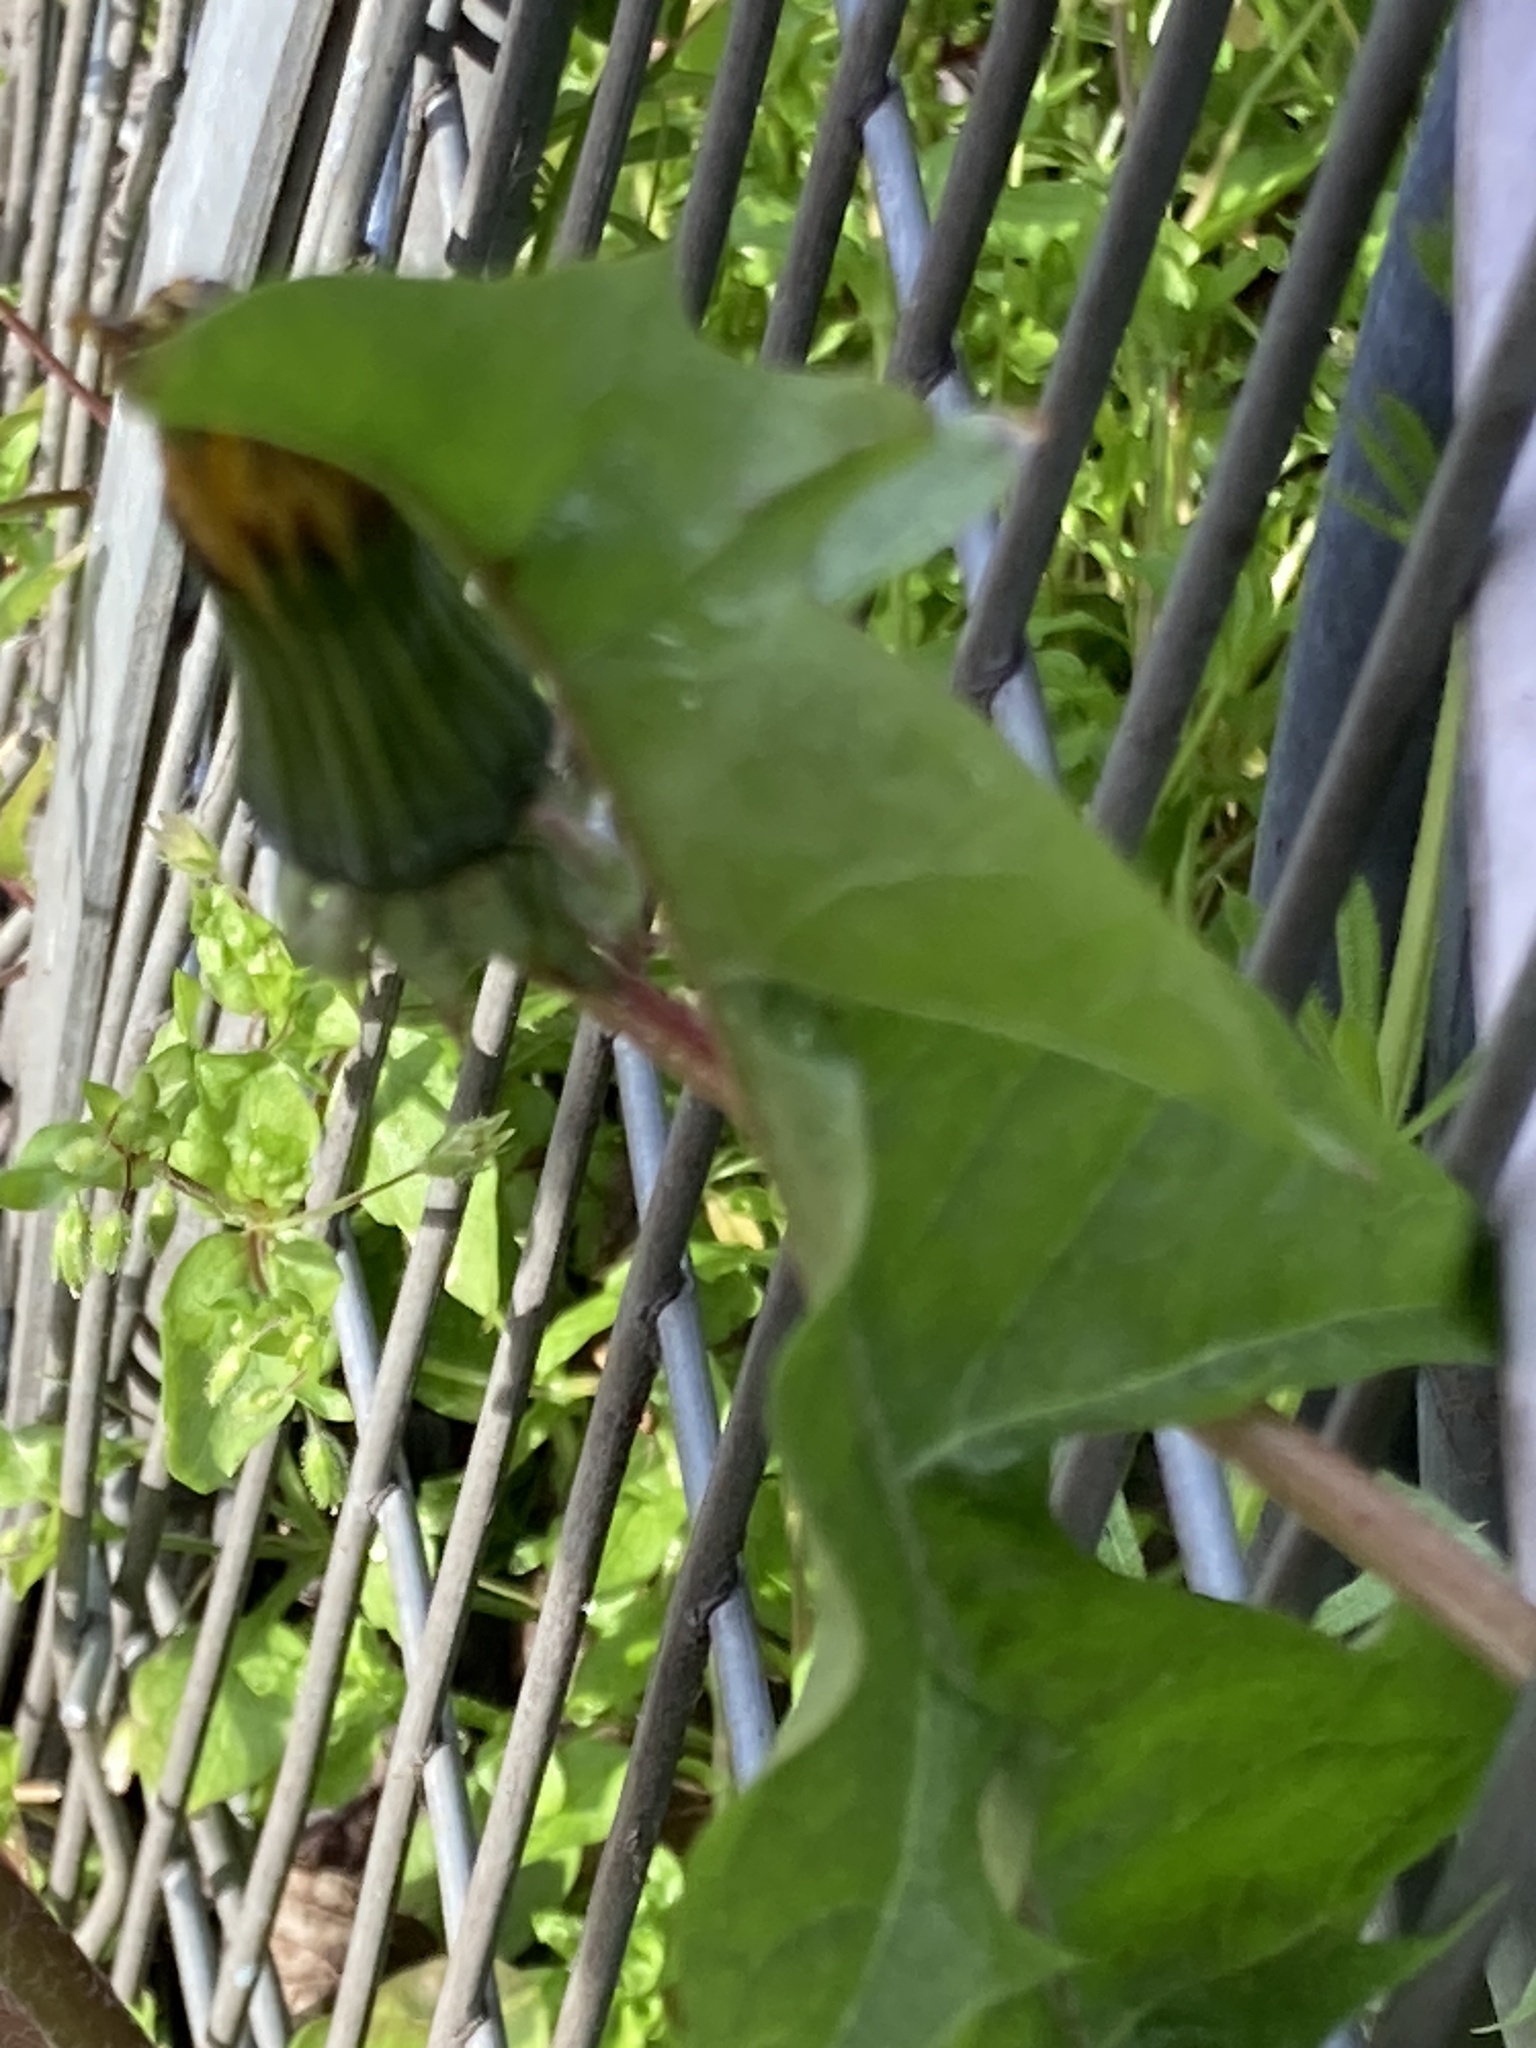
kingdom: Plantae
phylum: Tracheophyta
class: Magnoliopsida
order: Asterales
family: Asteraceae
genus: Taraxacum
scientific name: Taraxacum officinale
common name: Common dandelion
